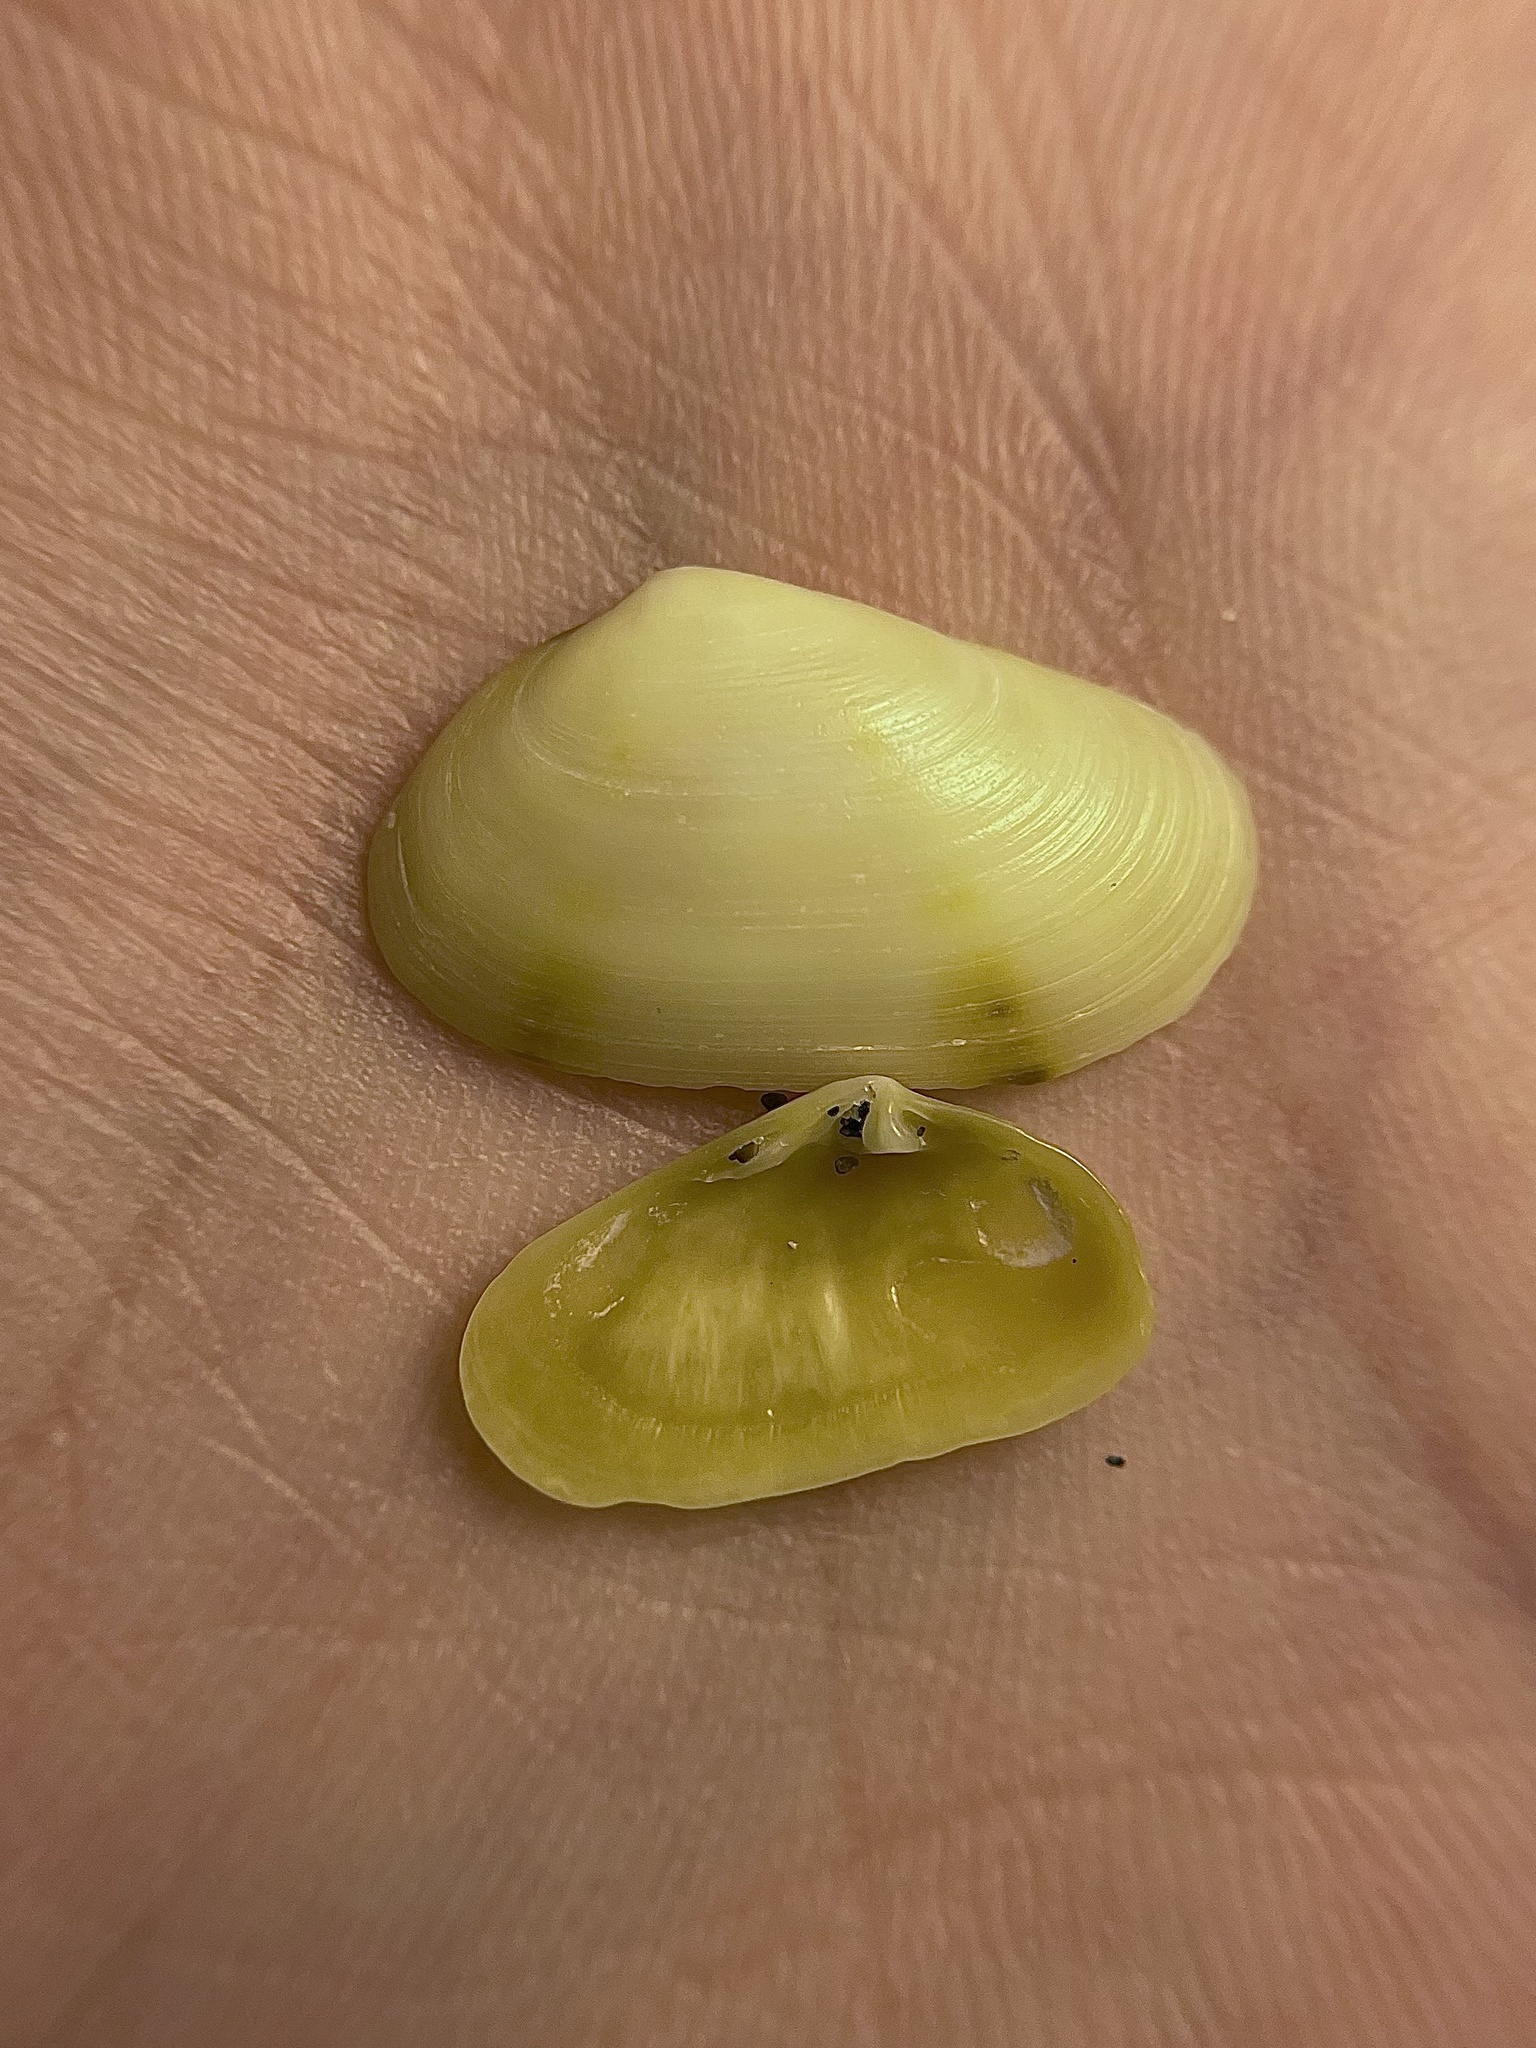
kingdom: Animalia
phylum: Mollusca
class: Bivalvia
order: Venerida
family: Mesodesmatidae
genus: Donacilla
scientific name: Donacilla cornea
